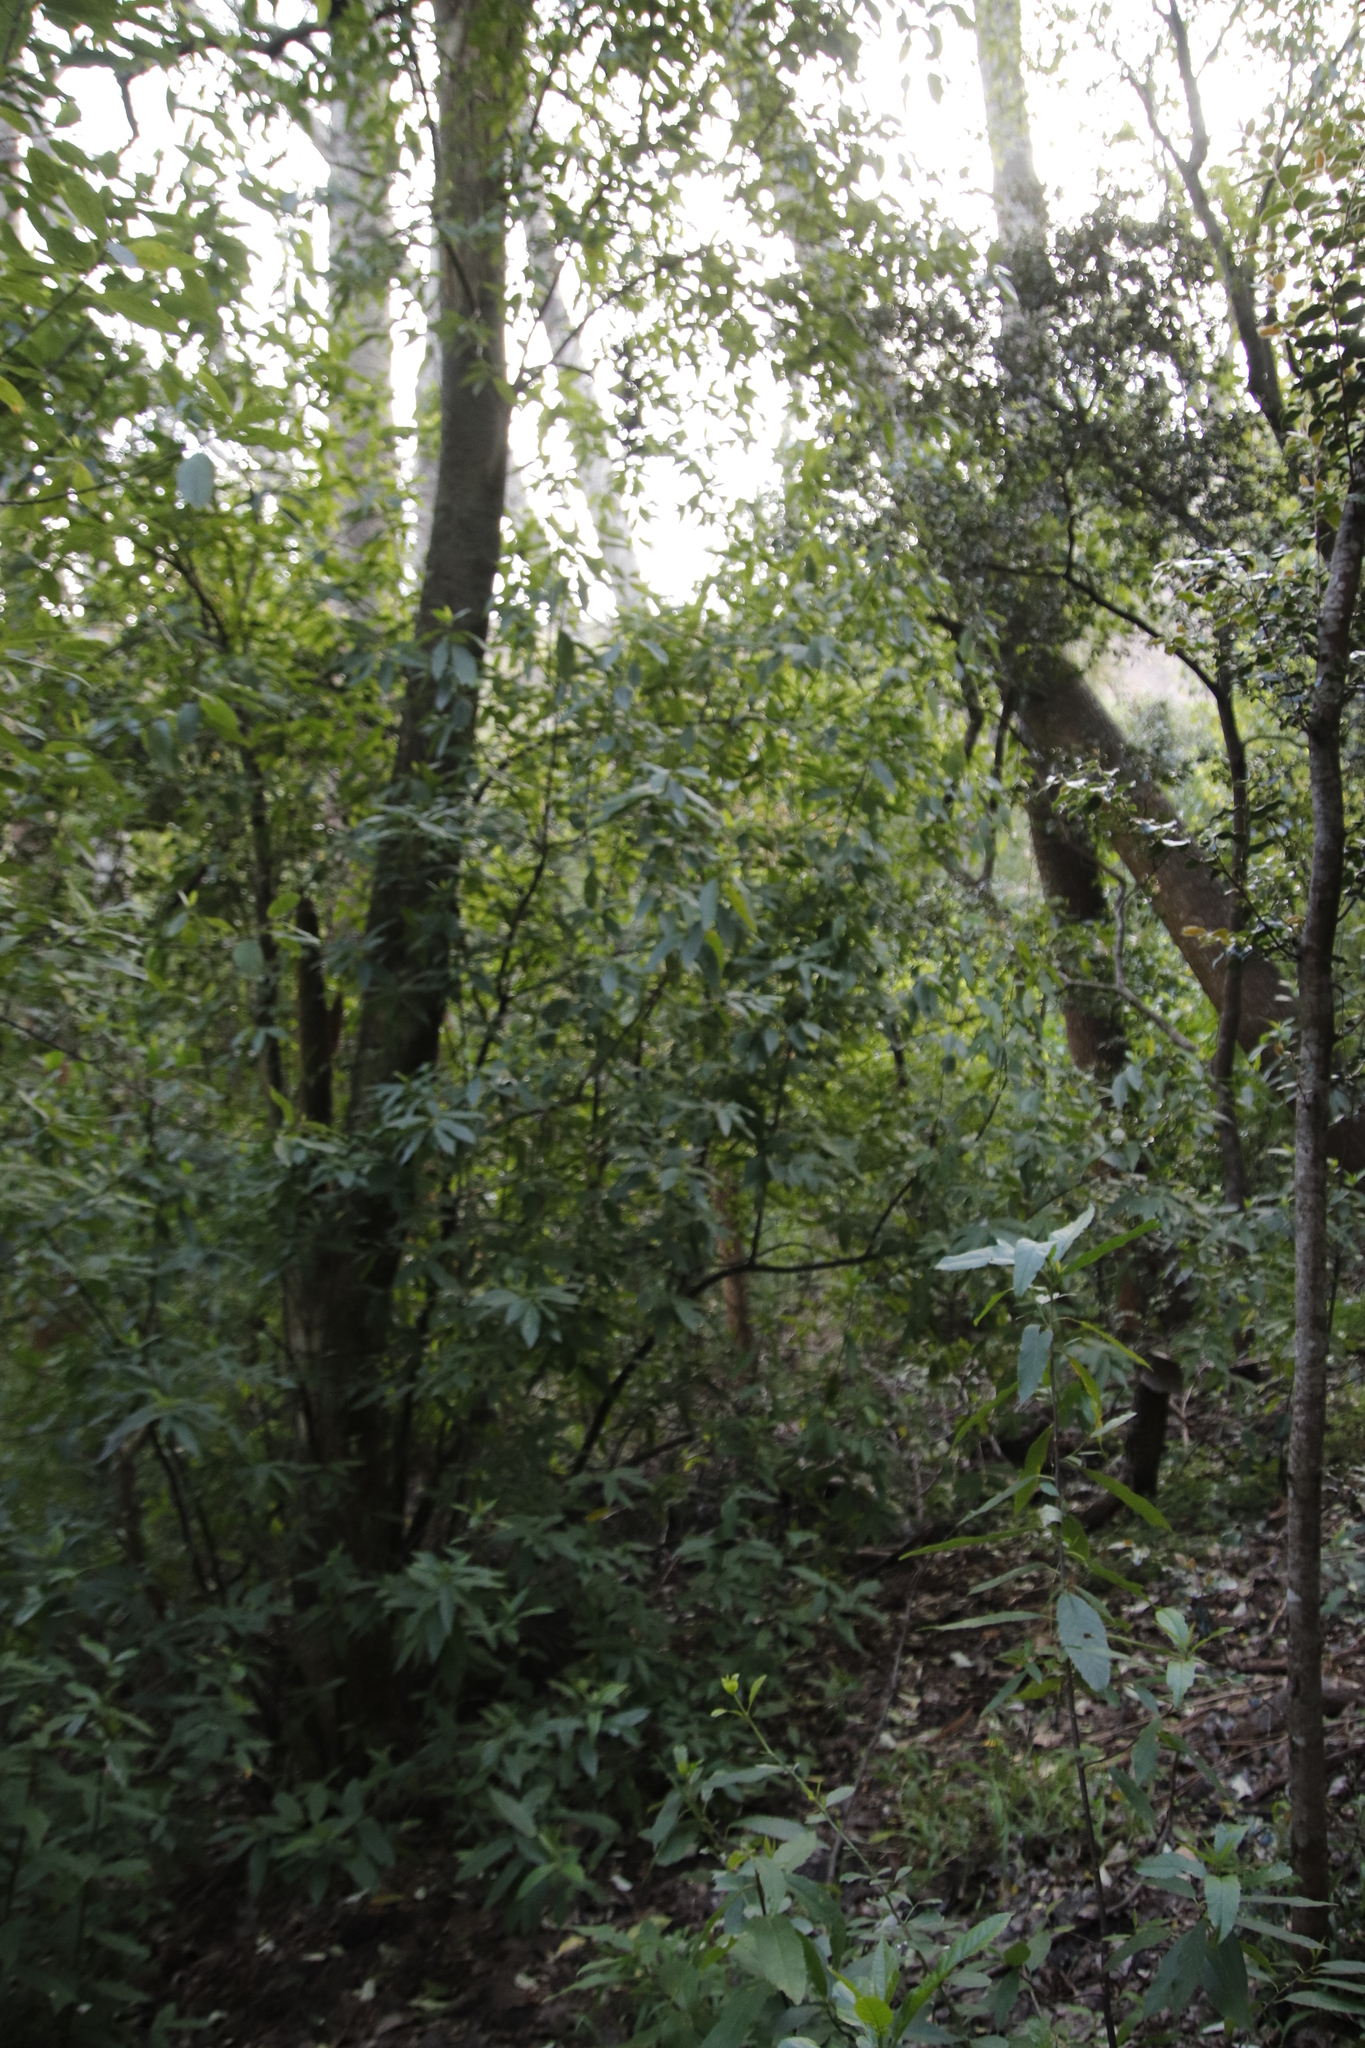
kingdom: Plantae
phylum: Tracheophyta
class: Magnoliopsida
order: Malpighiales
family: Achariaceae
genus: Kiggelaria
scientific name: Kiggelaria africana
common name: Wild peach
